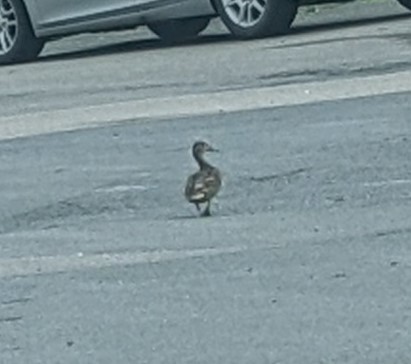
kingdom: Animalia
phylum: Chordata
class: Aves
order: Anseriformes
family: Anatidae
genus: Anas
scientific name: Anas platyrhynchos
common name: Mallard
